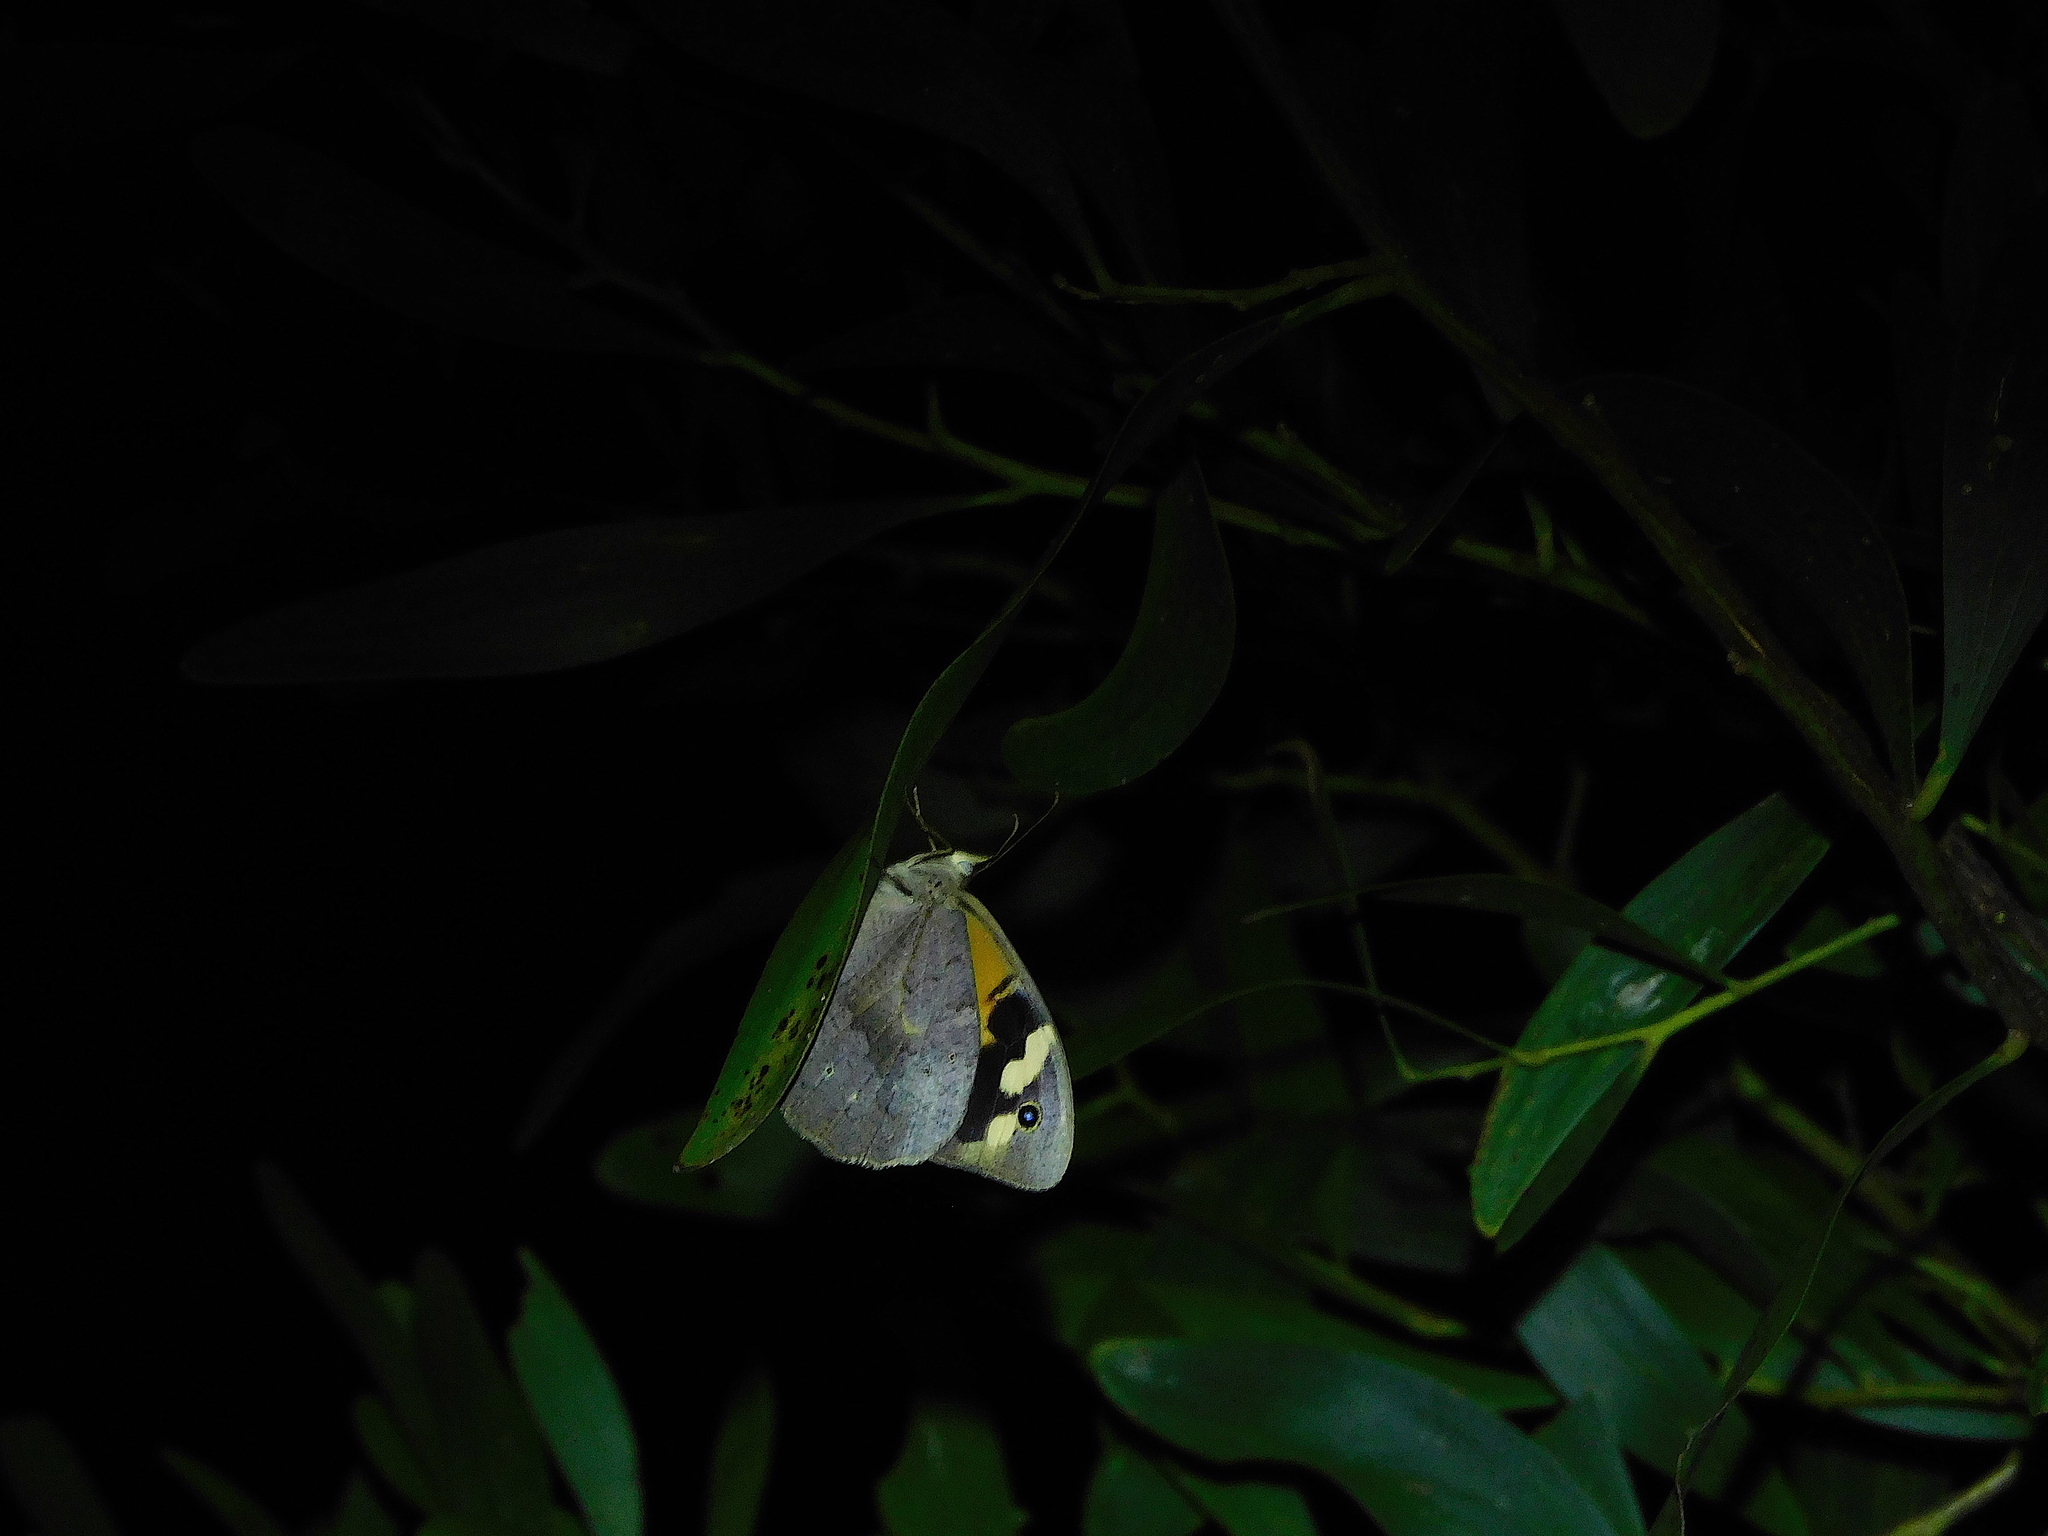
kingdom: Animalia
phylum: Arthropoda
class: Insecta
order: Lepidoptera
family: Nymphalidae
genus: Heteronympha
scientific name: Heteronympha merope
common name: Common brown
